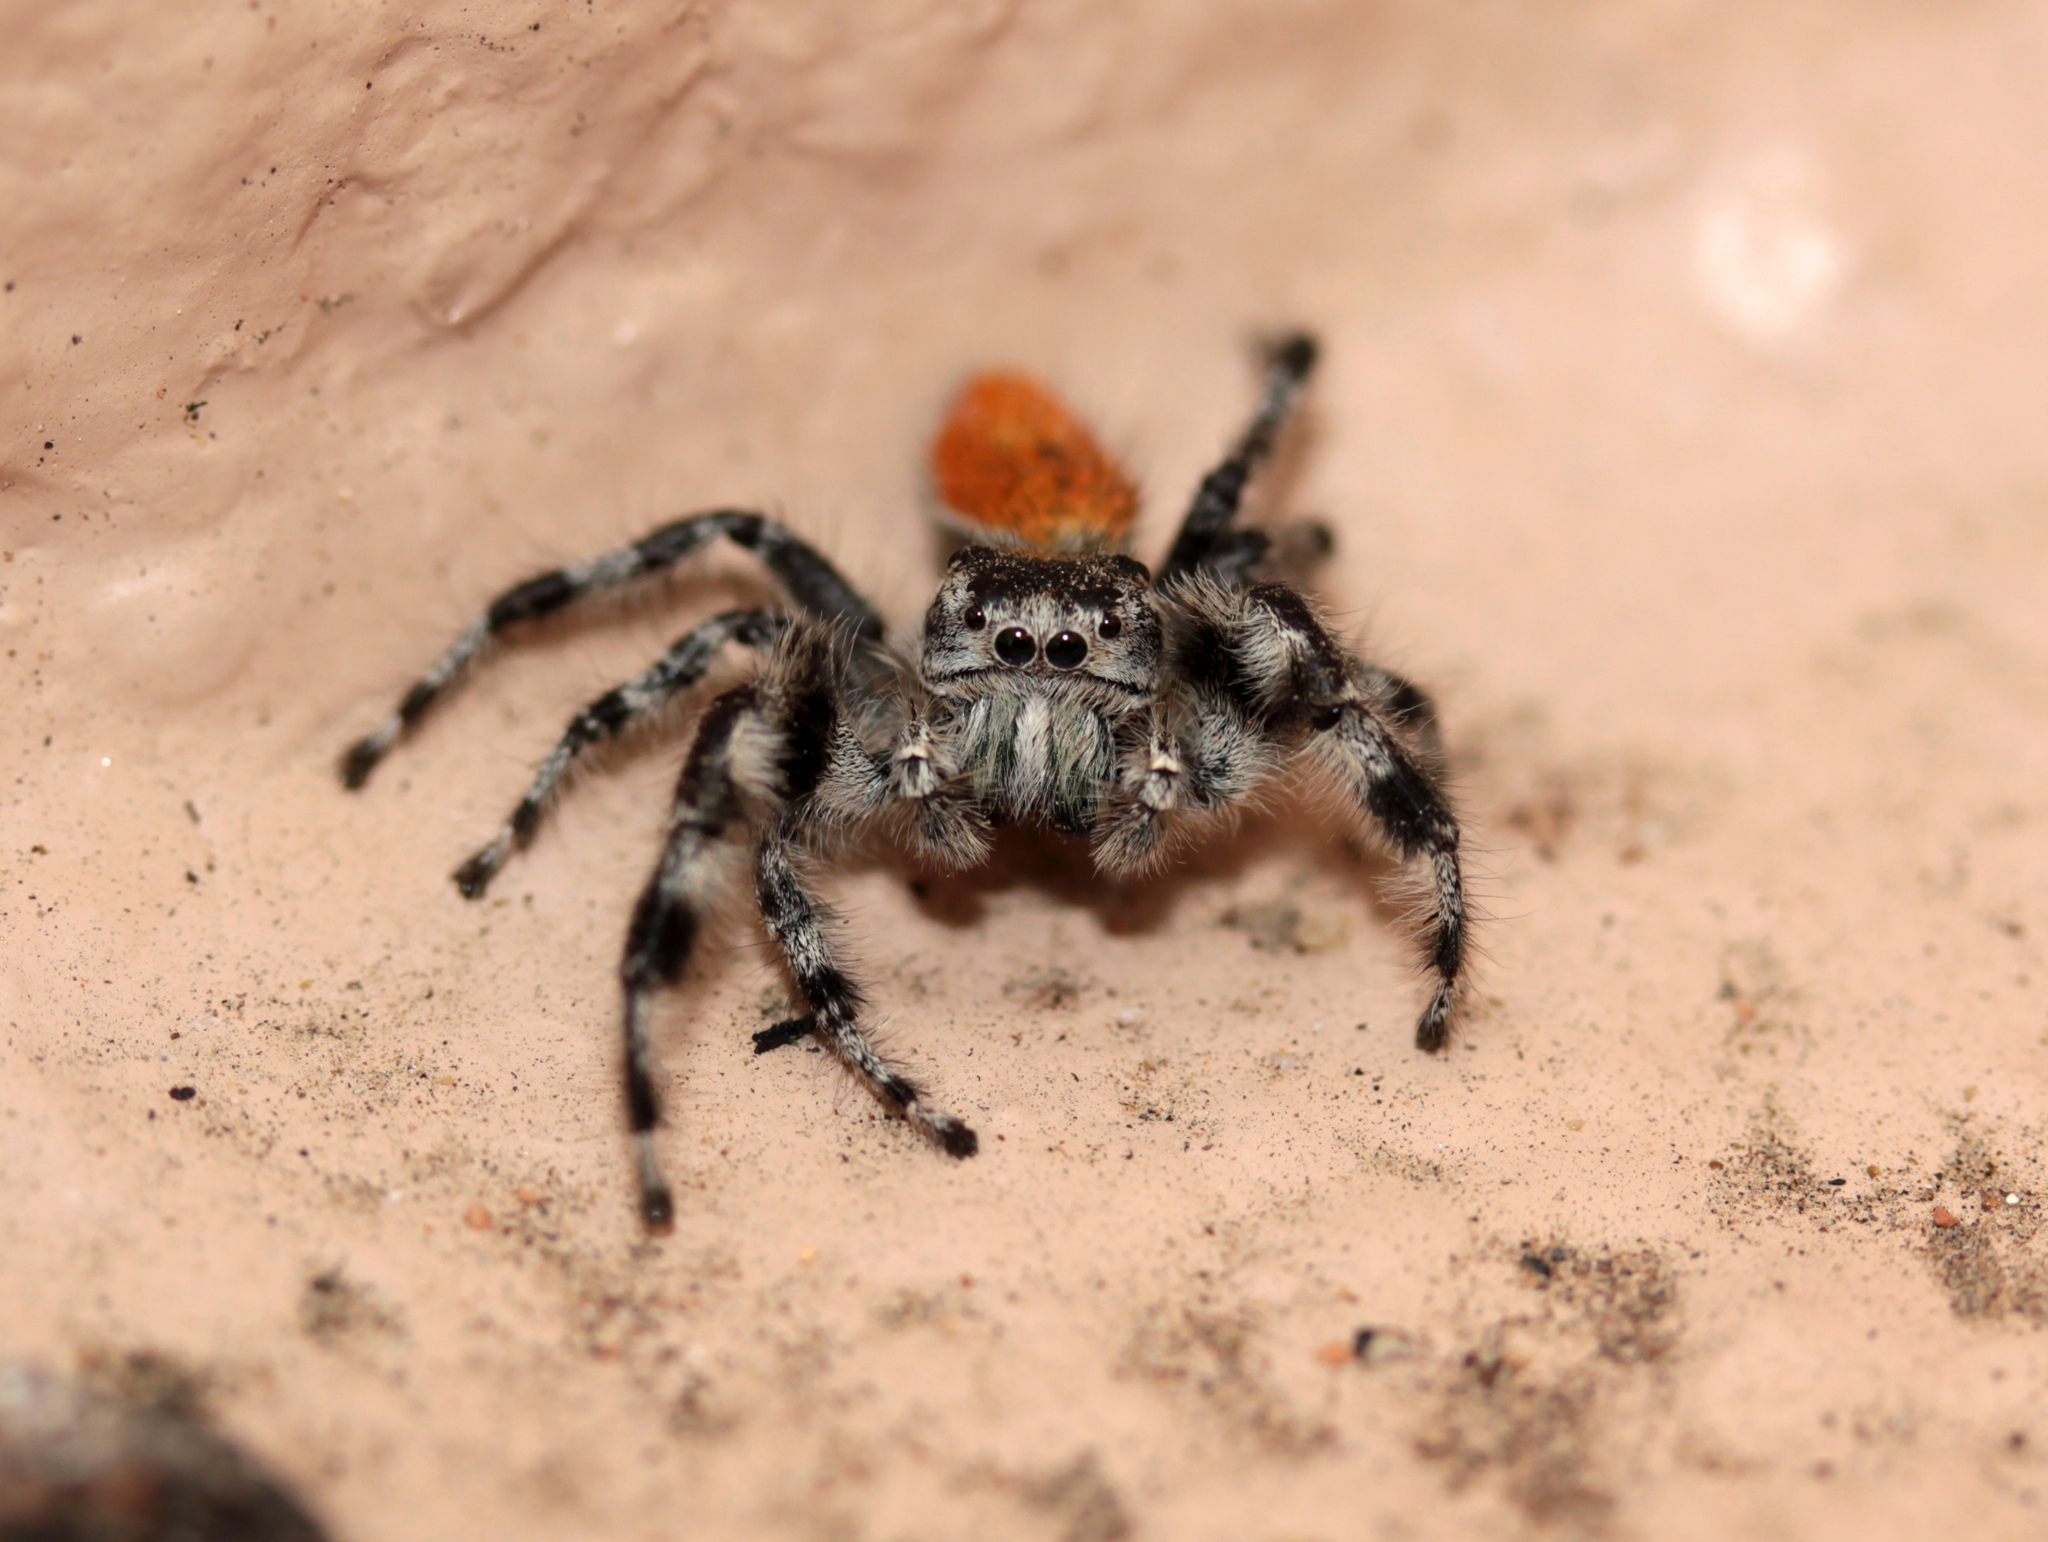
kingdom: Animalia
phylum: Arthropoda
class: Arachnida
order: Araneae
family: Salticidae
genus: Phidippus
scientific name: Phidippus adumbratus
